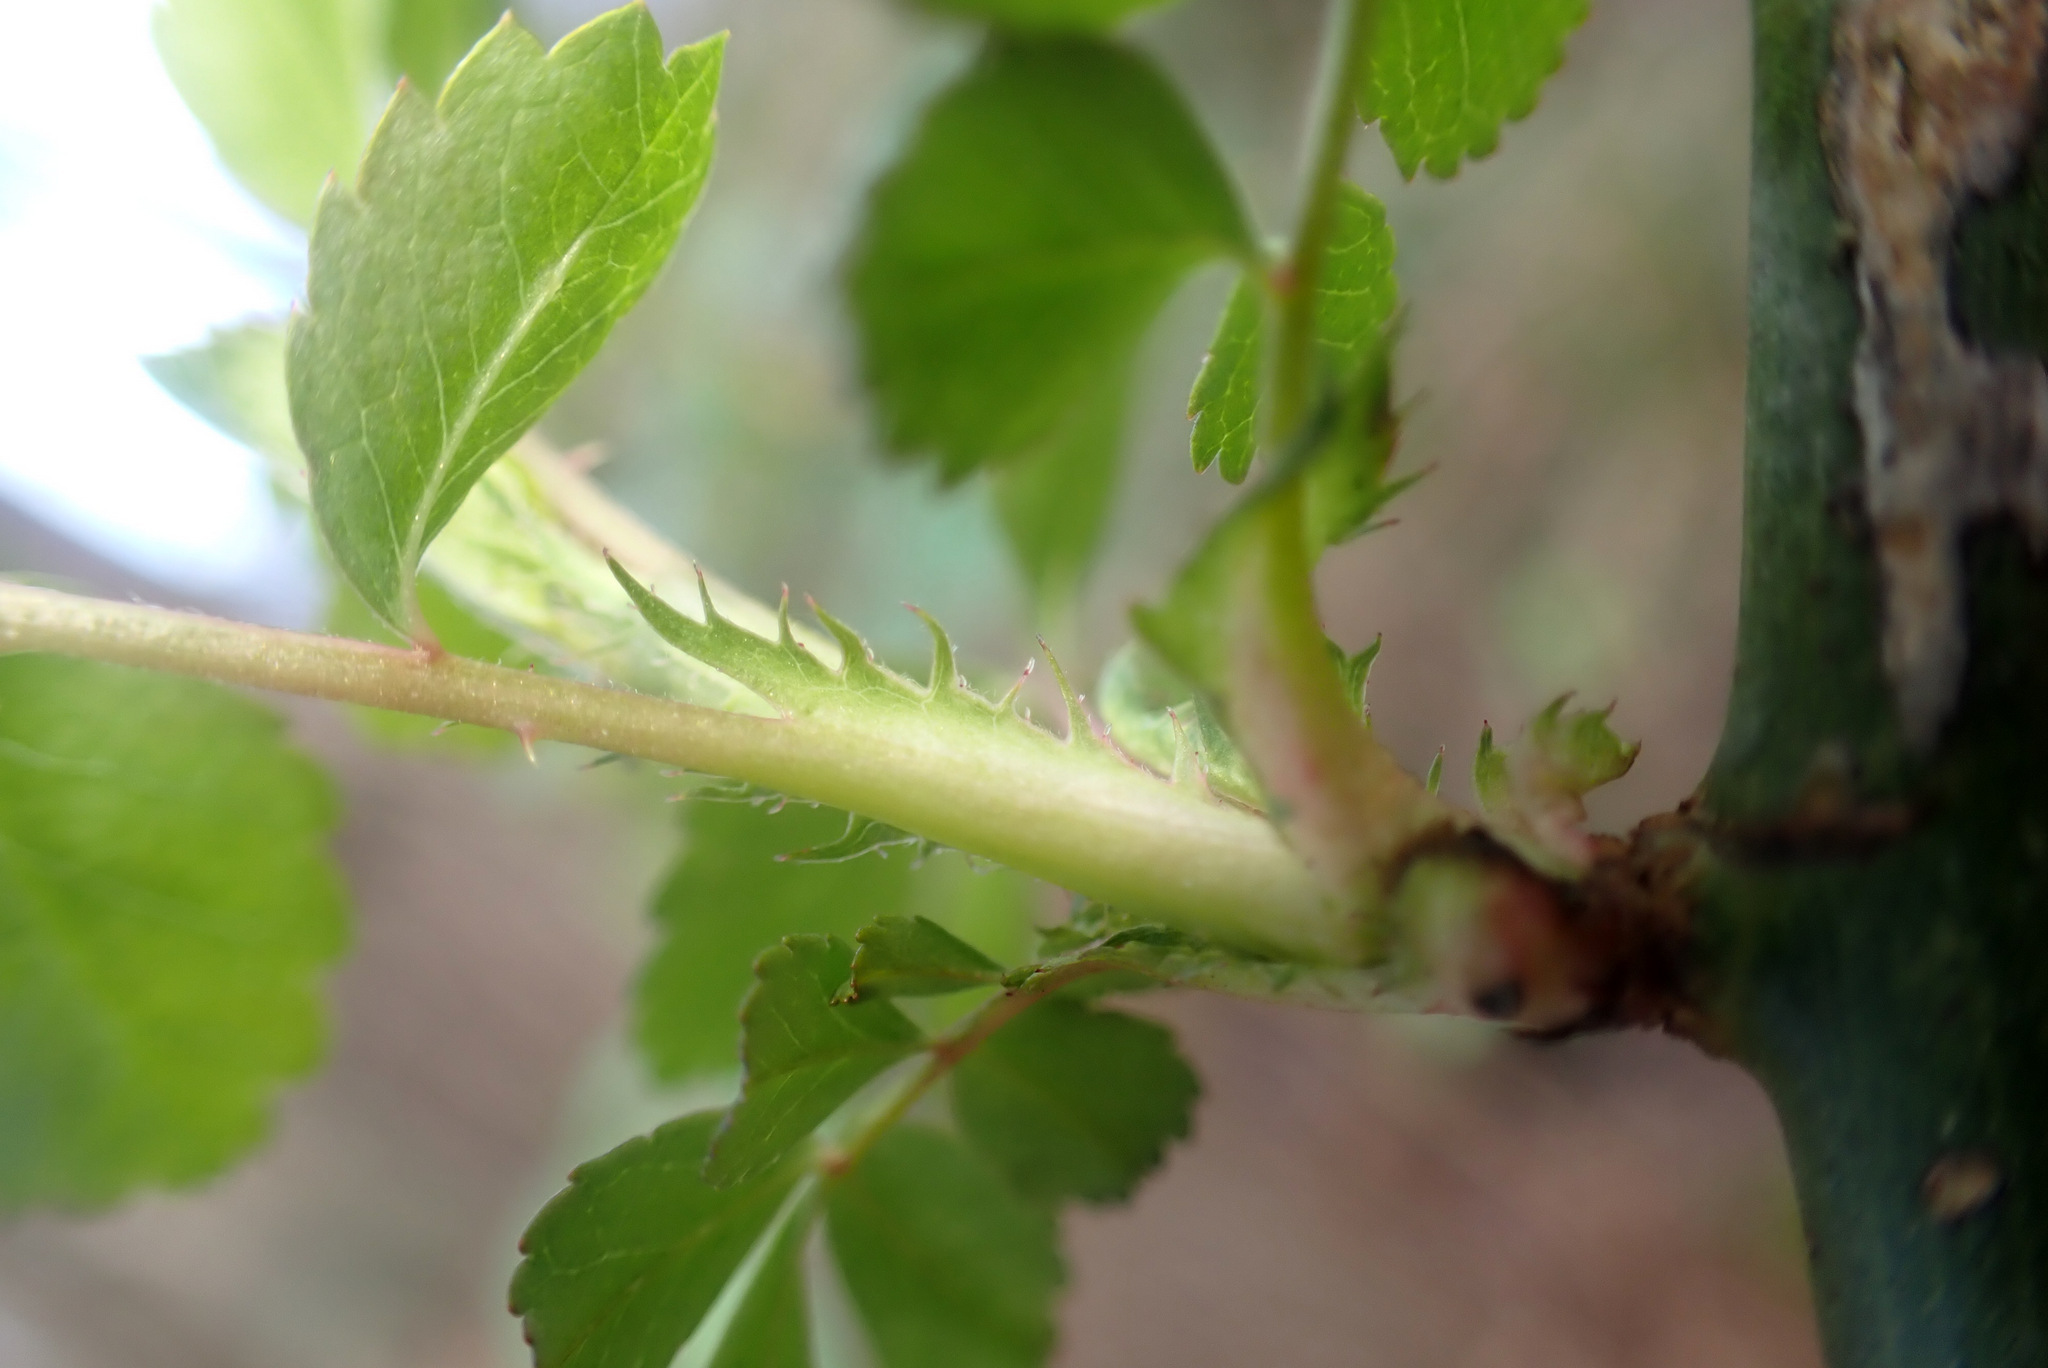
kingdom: Plantae
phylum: Tracheophyta
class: Magnoliopsida
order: Rosales
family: Rosaceae
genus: Rosa
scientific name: Rosa multiflora
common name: Multiflora rose
